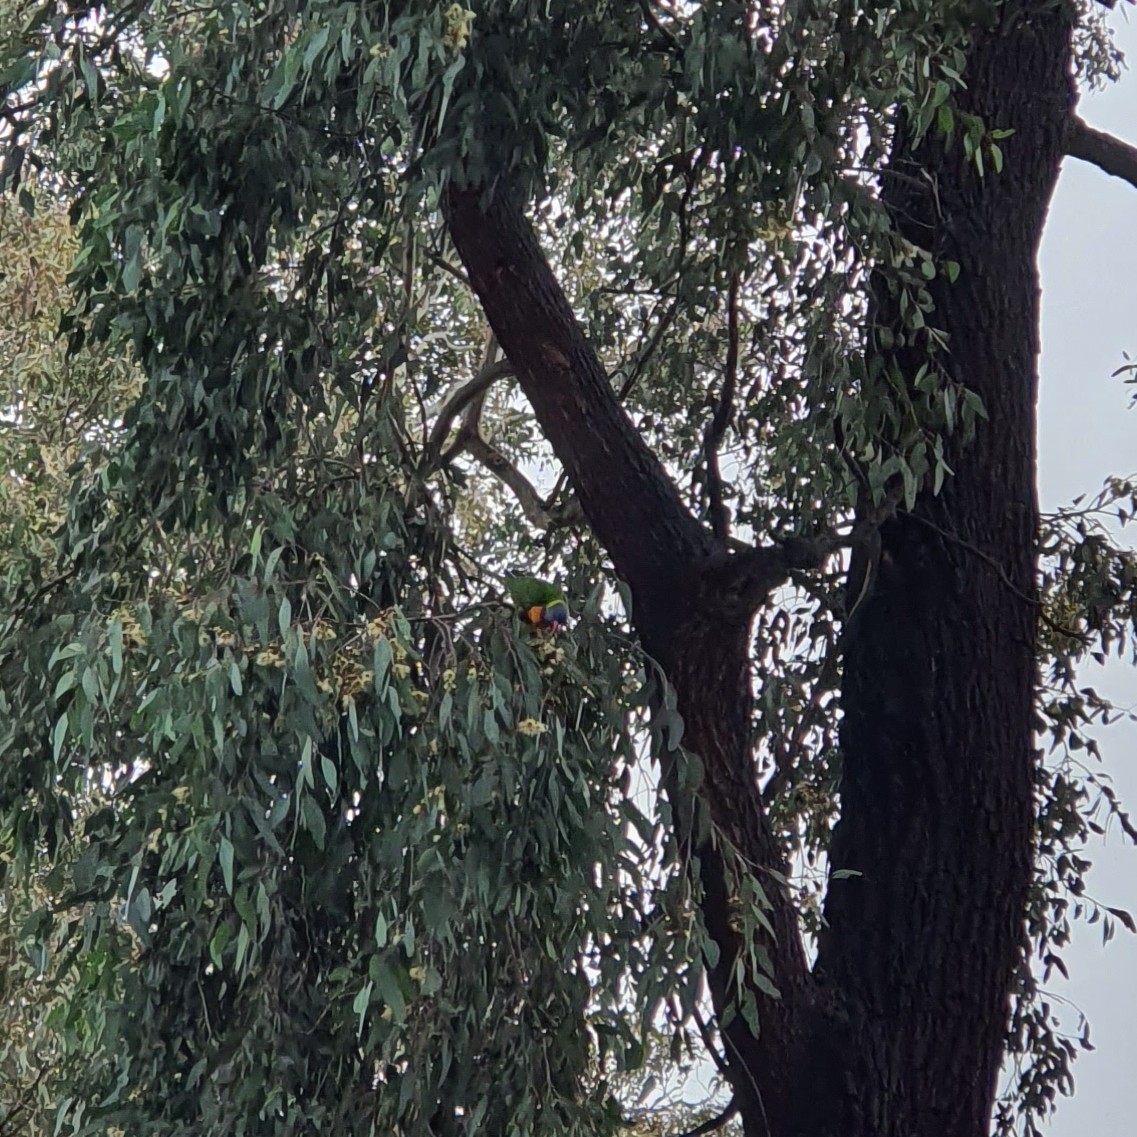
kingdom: Animalia
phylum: Chordata
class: Aves
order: Psittaciformes
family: Psittacidae
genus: Trichoglossus
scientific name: Trichoglossus haematodus
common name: Coconut lorikeet
